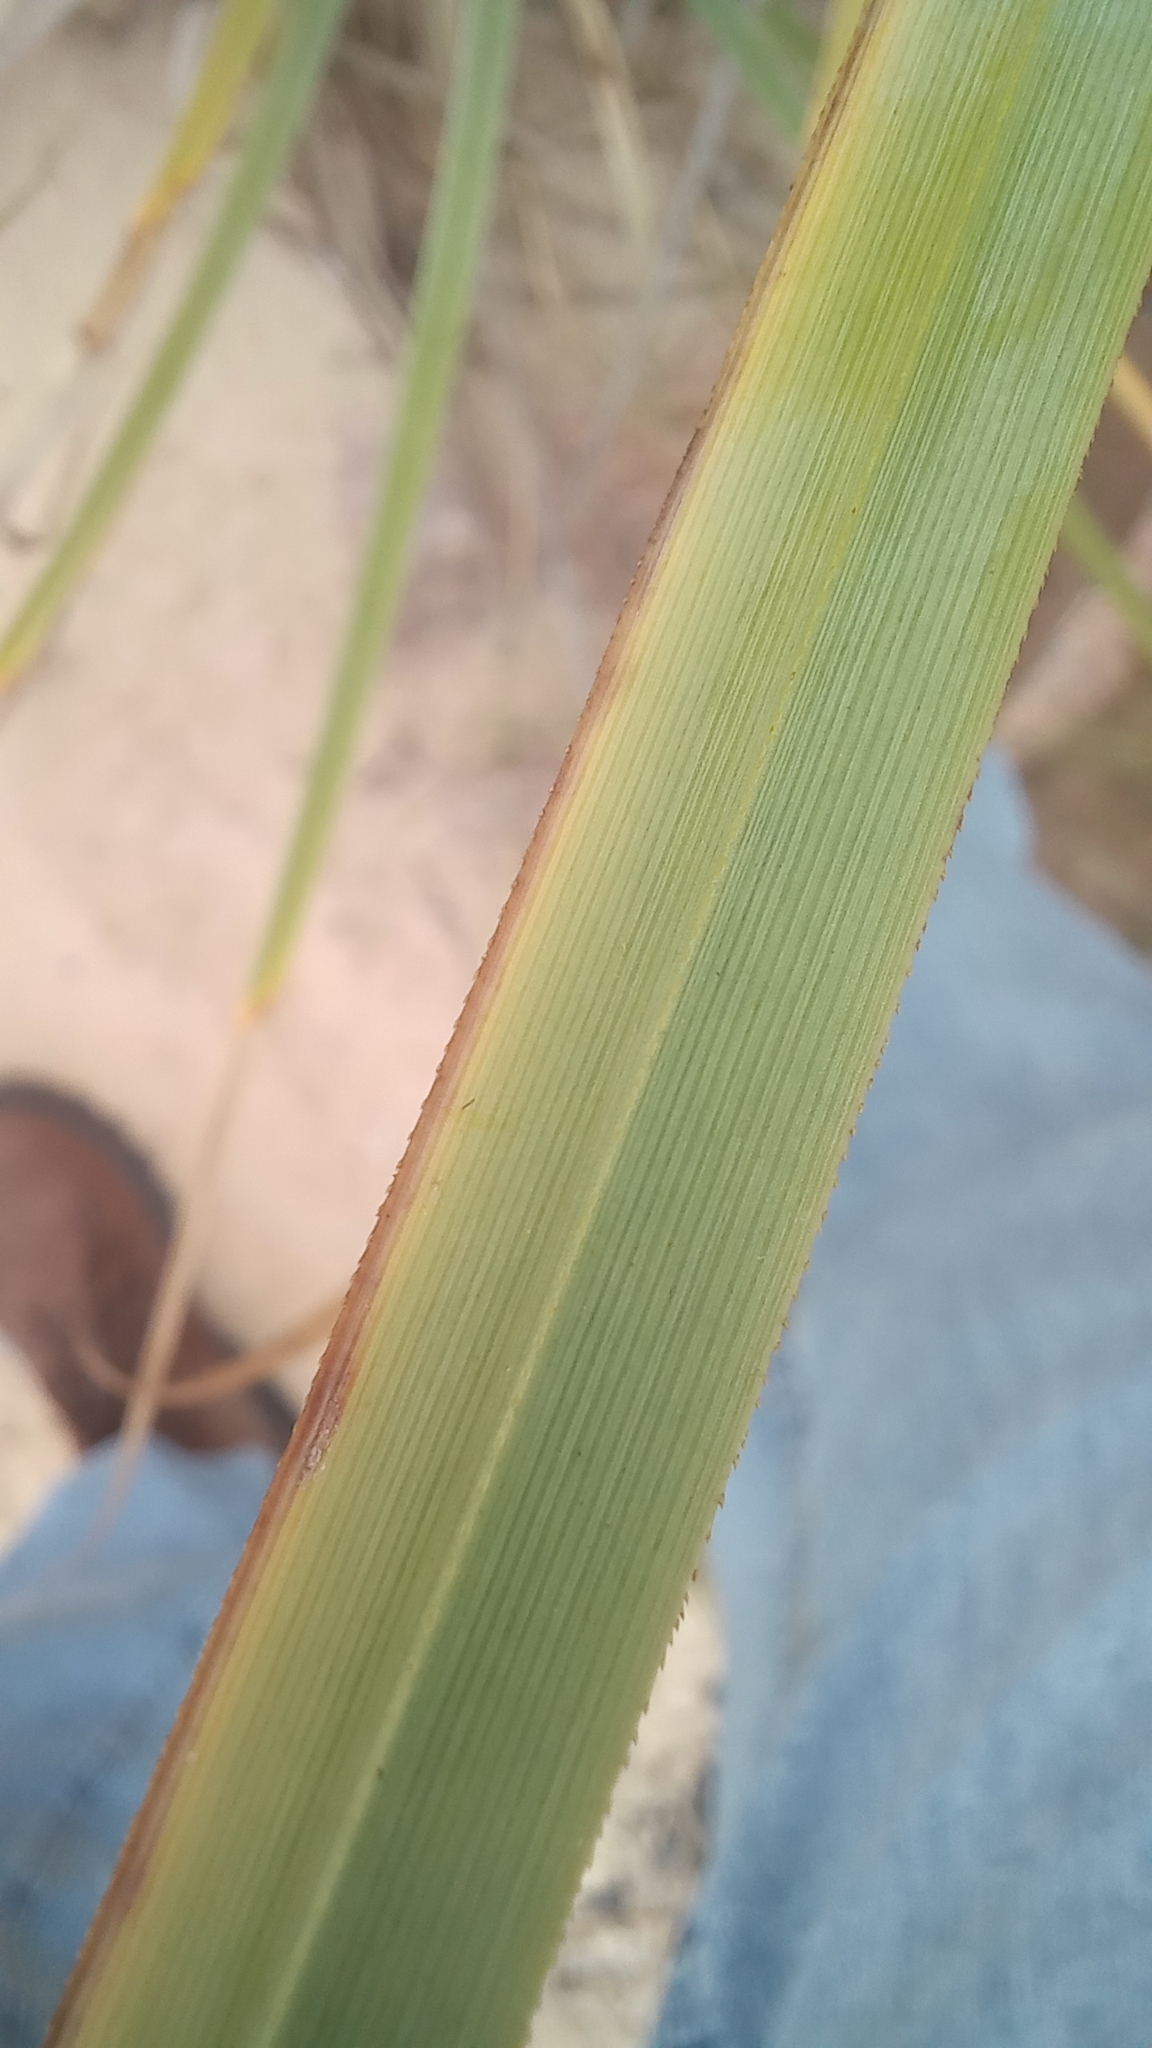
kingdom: Plantae
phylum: Tracheophyta
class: Liliopsida
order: Poales
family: Cyperaceae
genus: Cyperus
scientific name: Cyperus ligularis
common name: Swamp flat sedge
